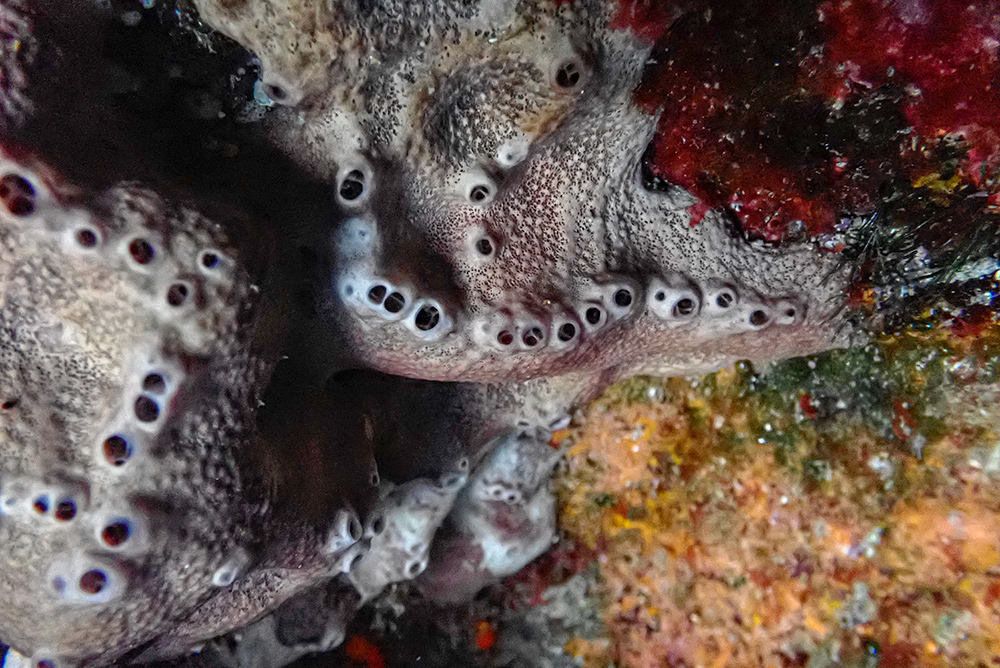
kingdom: Animalia
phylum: Porifera
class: Demospongiae
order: Dictyoceratida
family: Irciniidae
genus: Ircinia
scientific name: Ircinia variabilis
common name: Variable loggerhead sponge
